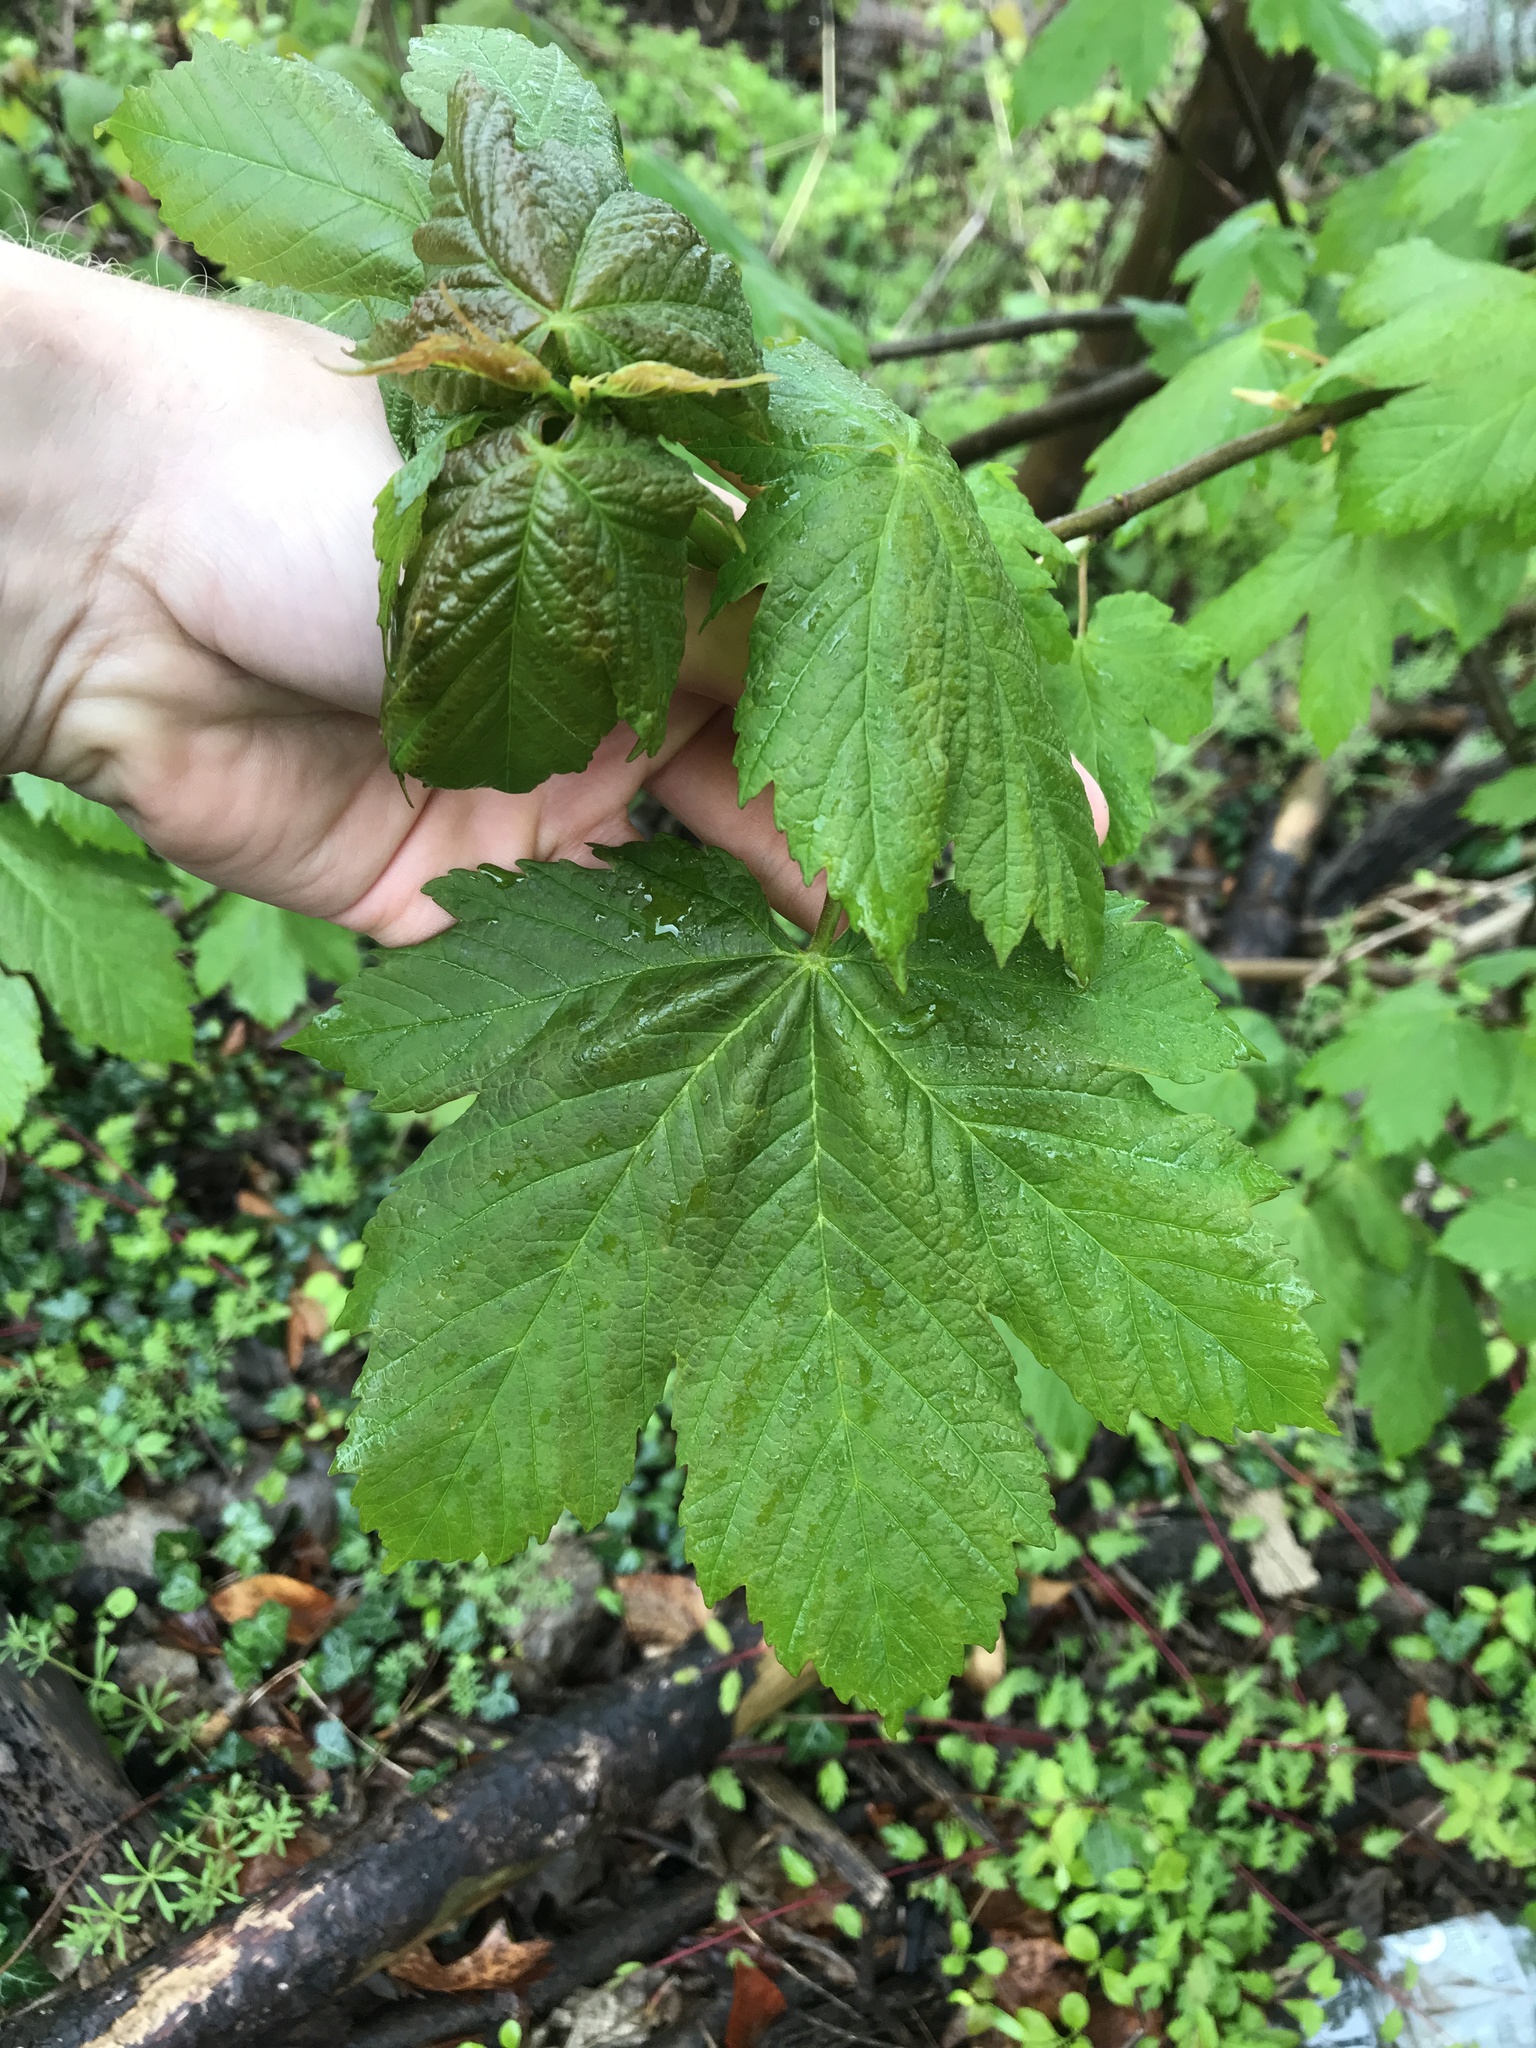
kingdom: Plantae
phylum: Tracheophyta
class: Magnoliopsida
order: Sapindales
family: Sapindaceae
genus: Acer
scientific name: Acer pseudoplatanus
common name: Sycamore
